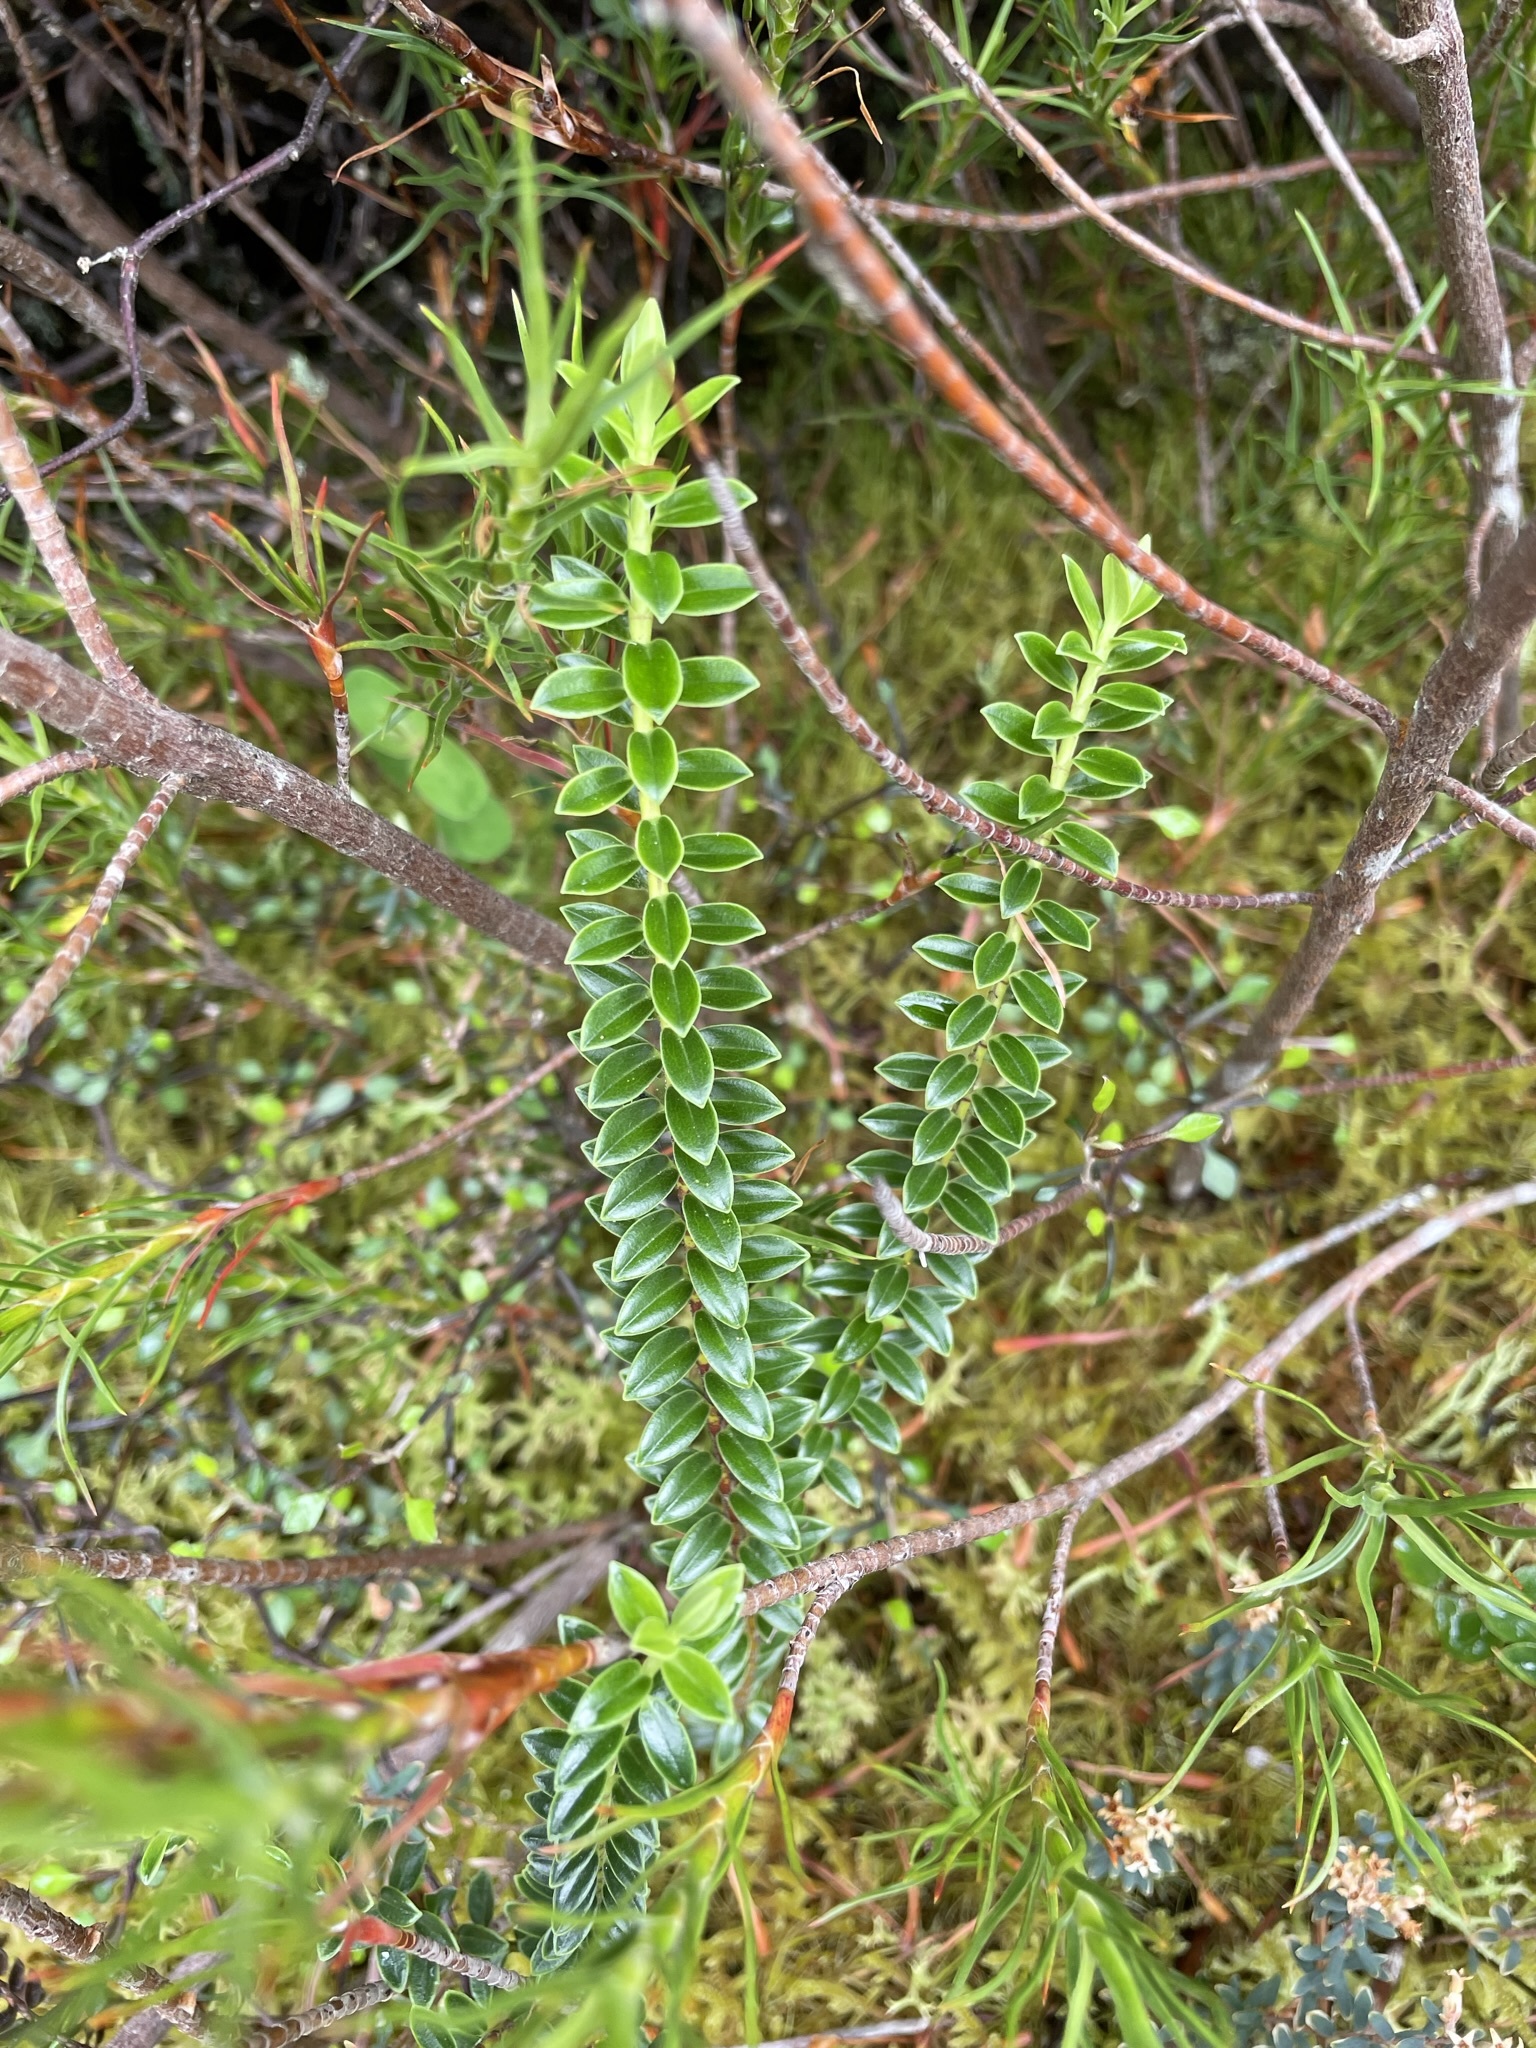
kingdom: Plantae
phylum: Tracheophyta
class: Magnoliopsida
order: Lamiales
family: Plantaginaceae
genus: Veronica
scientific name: Veronica odora
